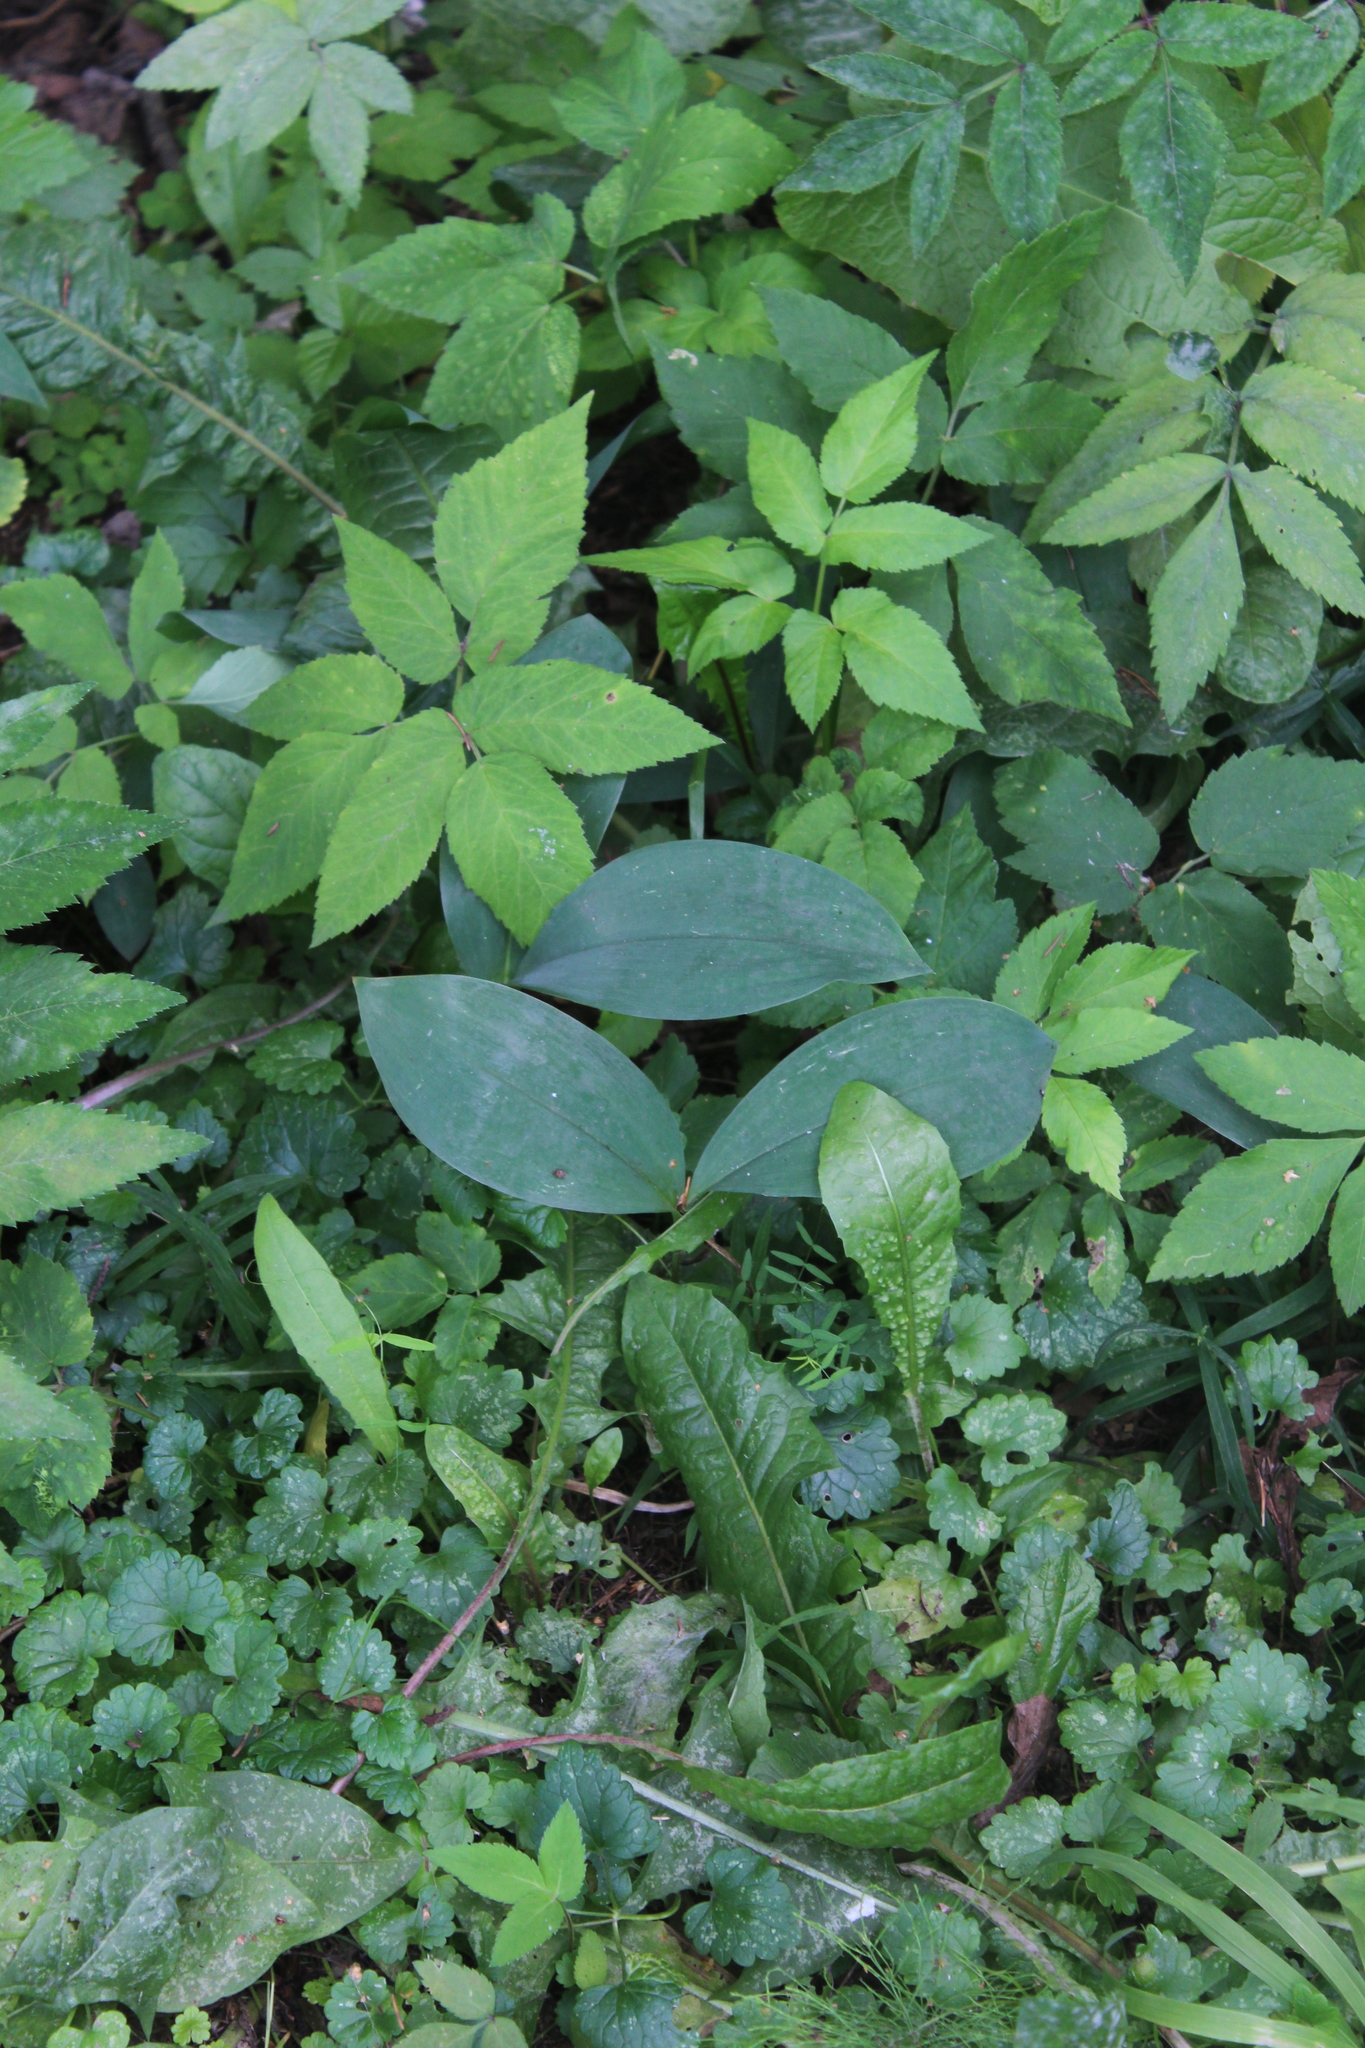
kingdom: Plantae
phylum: Tracheophyta
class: Liliopsida
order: Asparagales
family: Asparagaceae
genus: Convallaria
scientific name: Convallaria majalis
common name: Lily-of-the-valley
